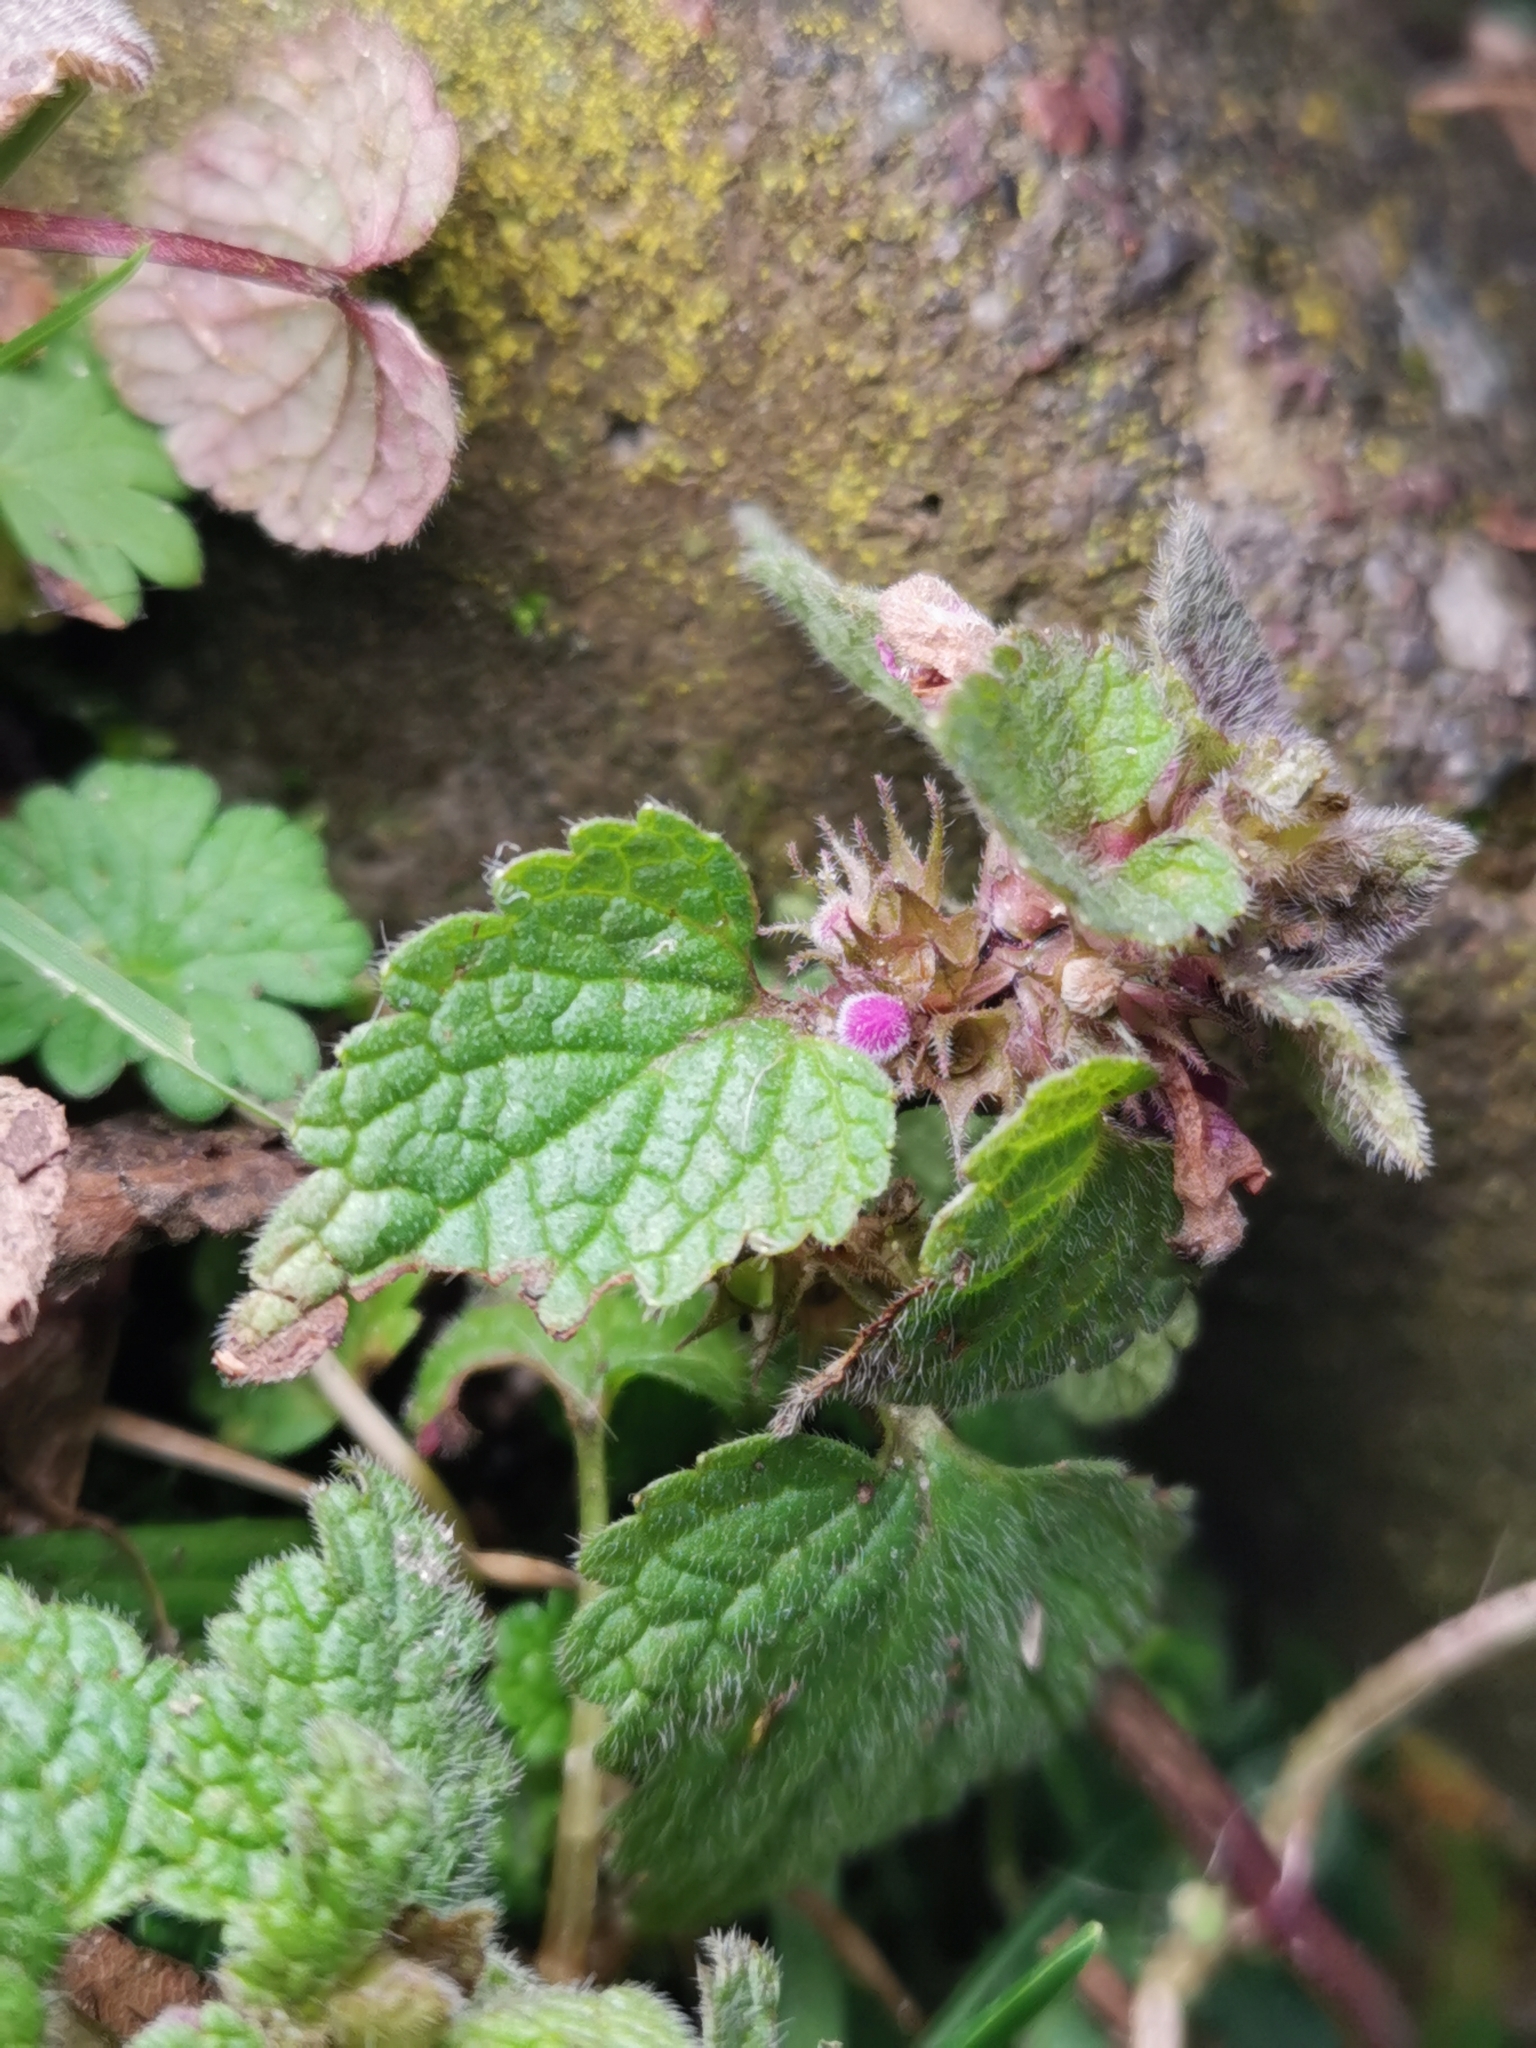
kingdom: Plantae
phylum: Tracheophyta
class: Magnoliopsida
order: Lamiales
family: Lamiaceae
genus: Lamium
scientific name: Lamium purpureum
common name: Red dead-nettle
